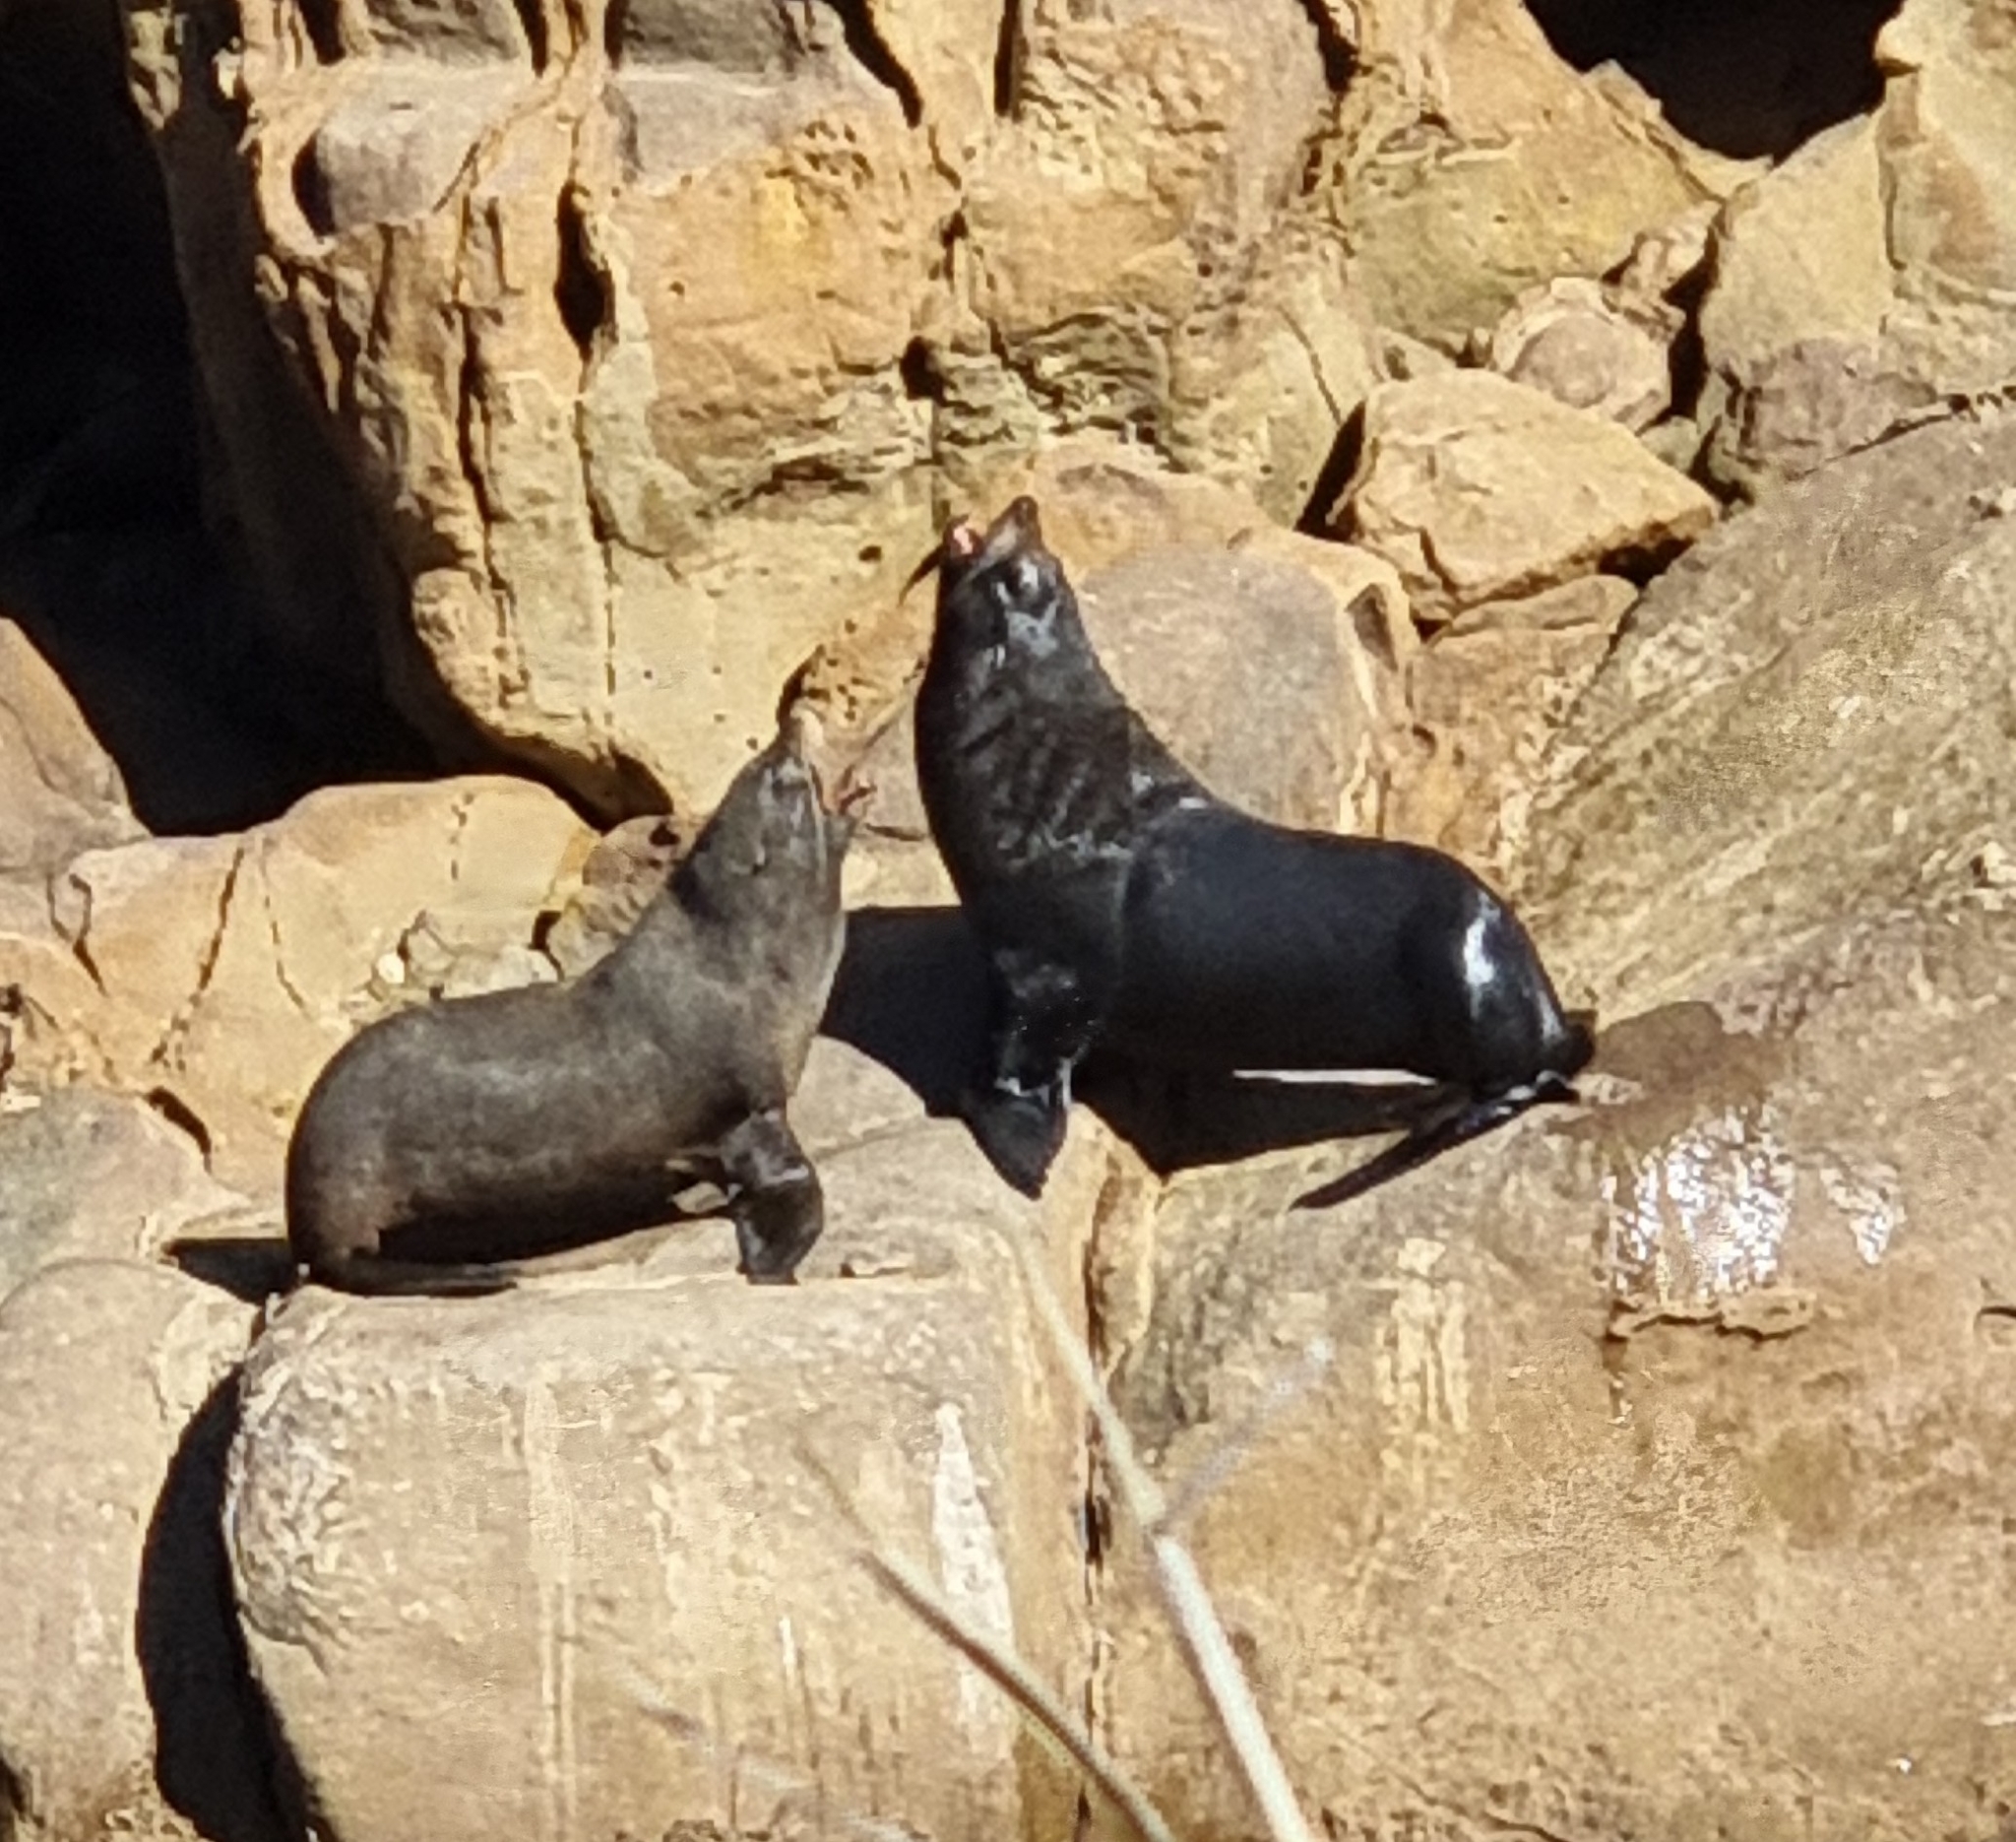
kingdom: Animalia
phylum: Chordata
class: Mammalia
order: Carnivora
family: Otariidae
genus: Arctocephalus
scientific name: Arctocephalus forsteri
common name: New zealand fur seal
